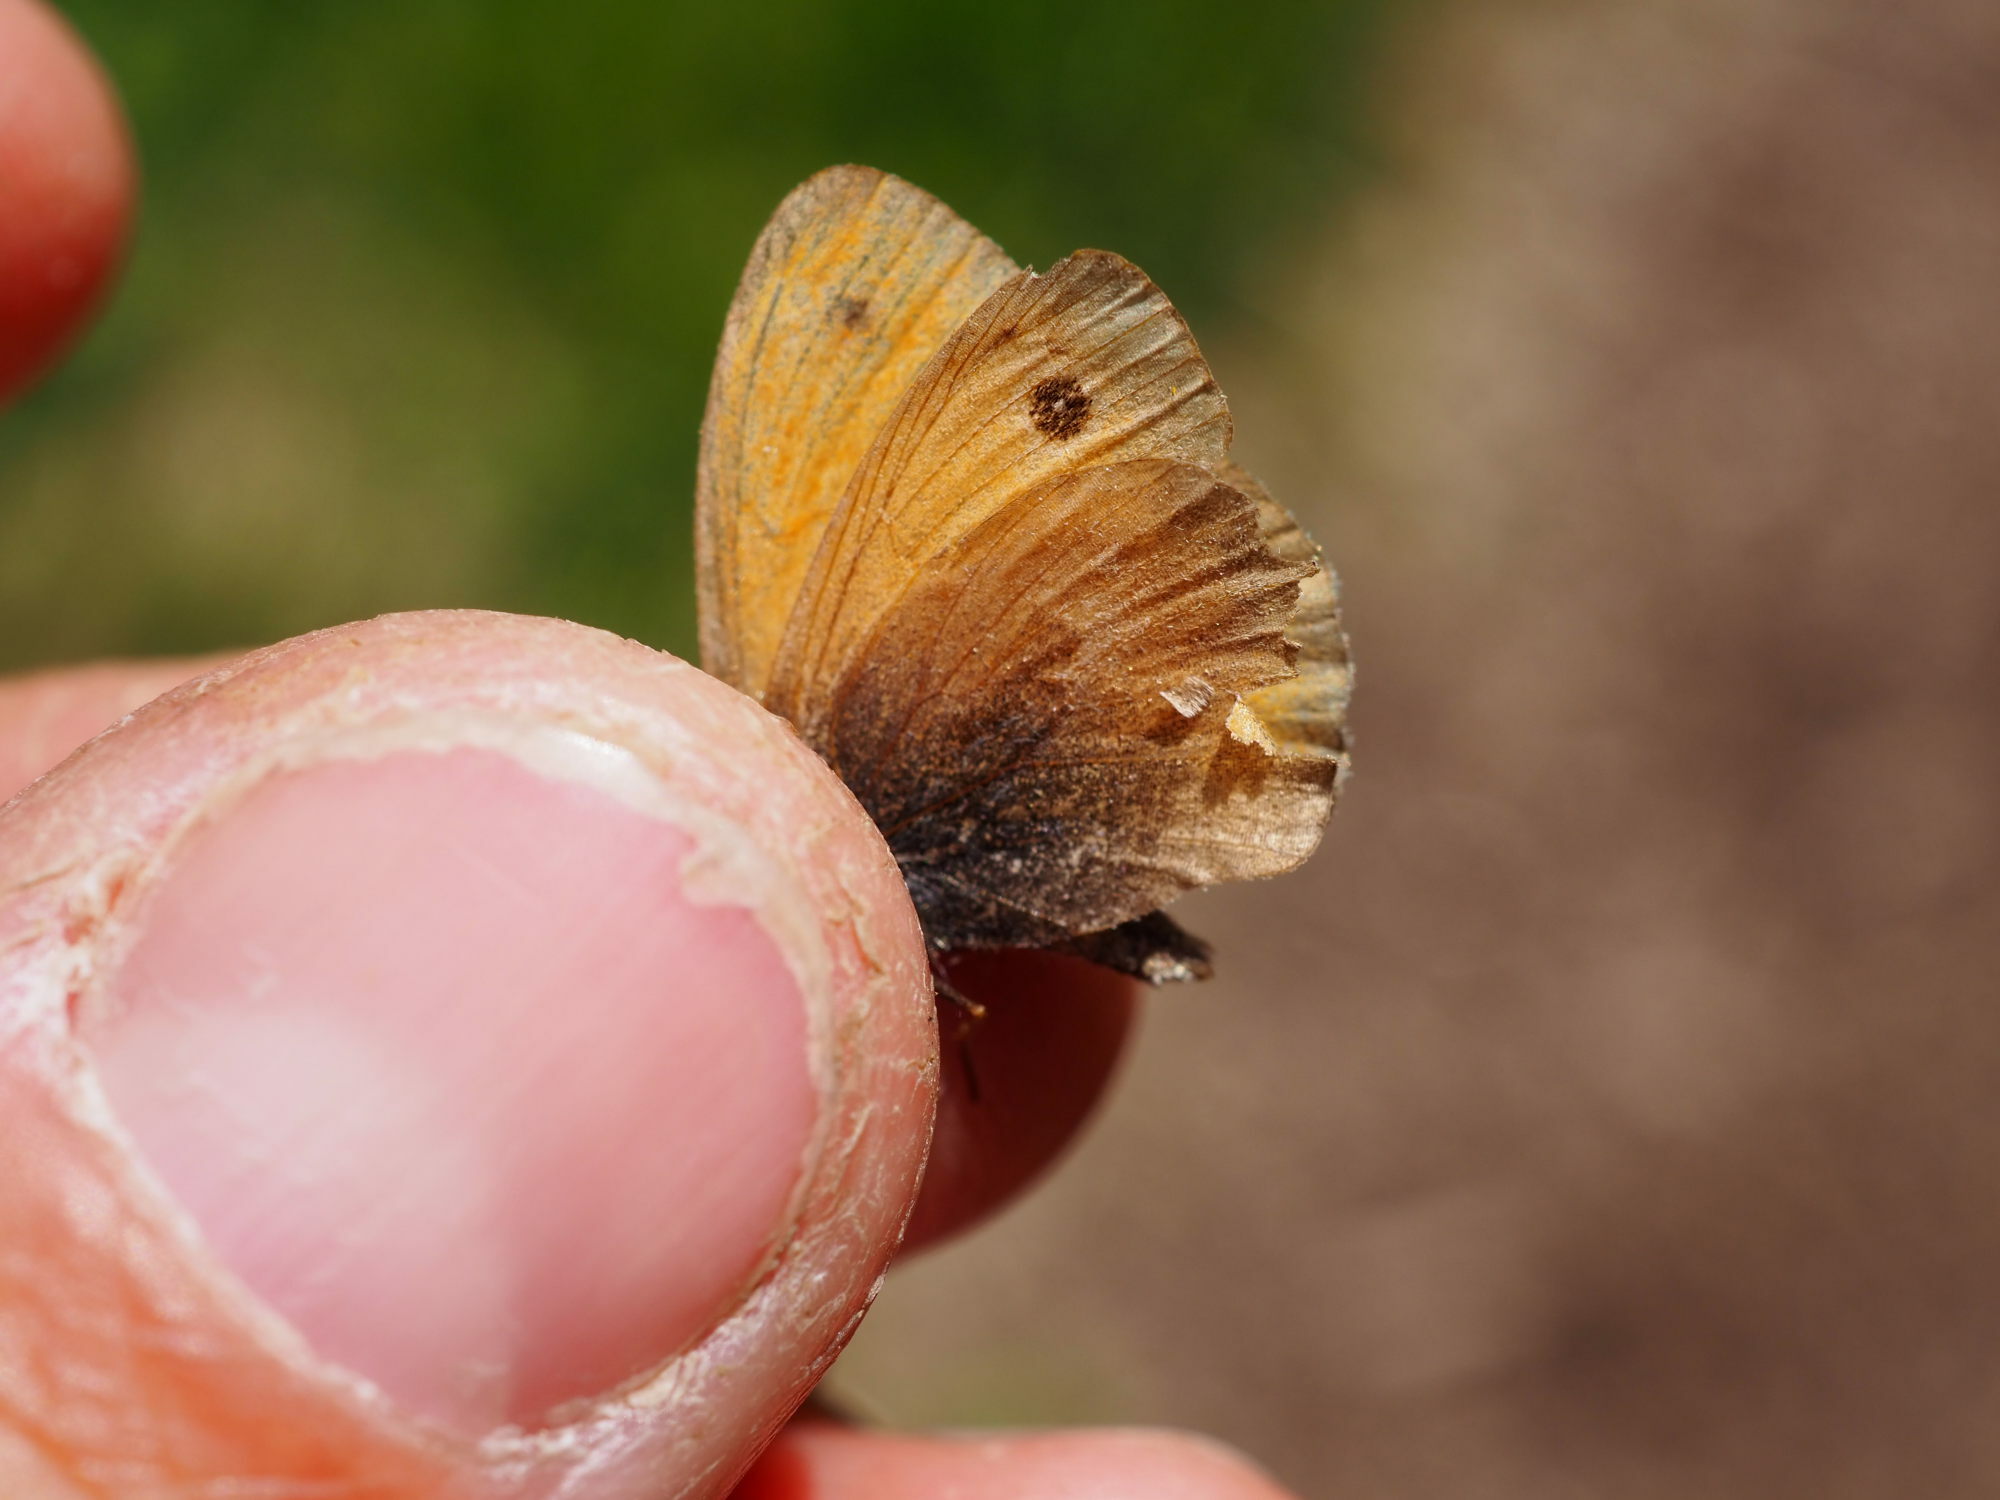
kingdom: Animalia
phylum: Arthropoda
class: Insecta
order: Lepidoptera
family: Nymphalidae
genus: Coenonympha
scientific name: Coenonympha pamphilus
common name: Small heath
